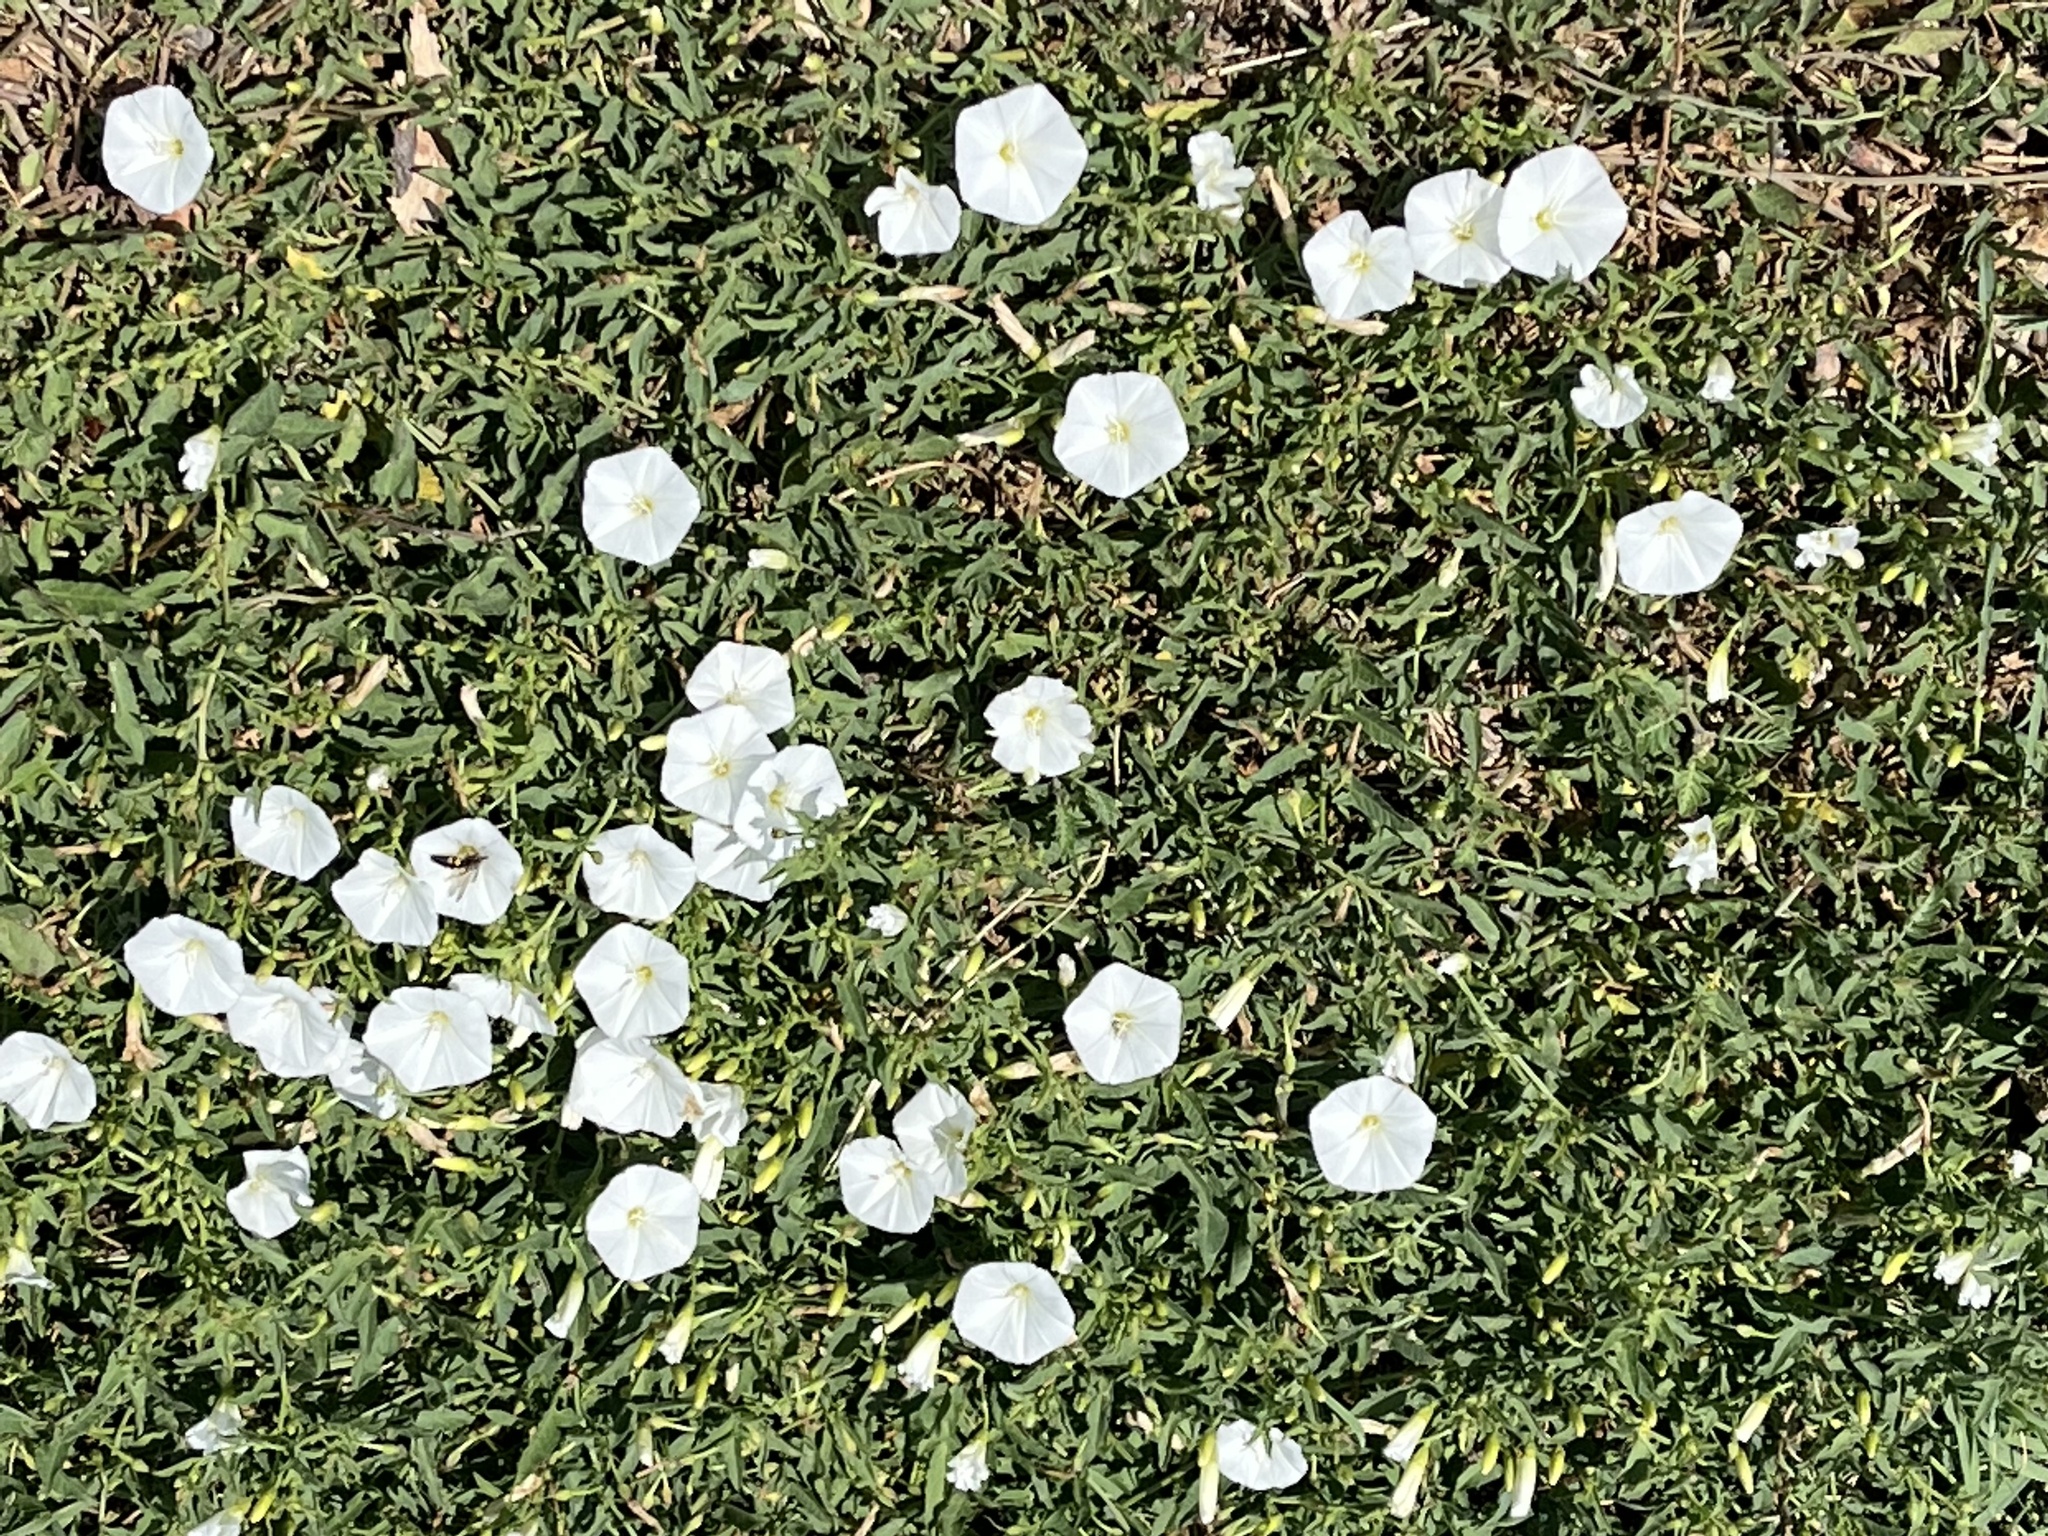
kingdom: Plantae
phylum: Tracheophyta
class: Magnoliopsida
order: Solanales
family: Convolvulaceae
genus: Convolvulus
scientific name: Convolvulus arvensis
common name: Field bindweed
